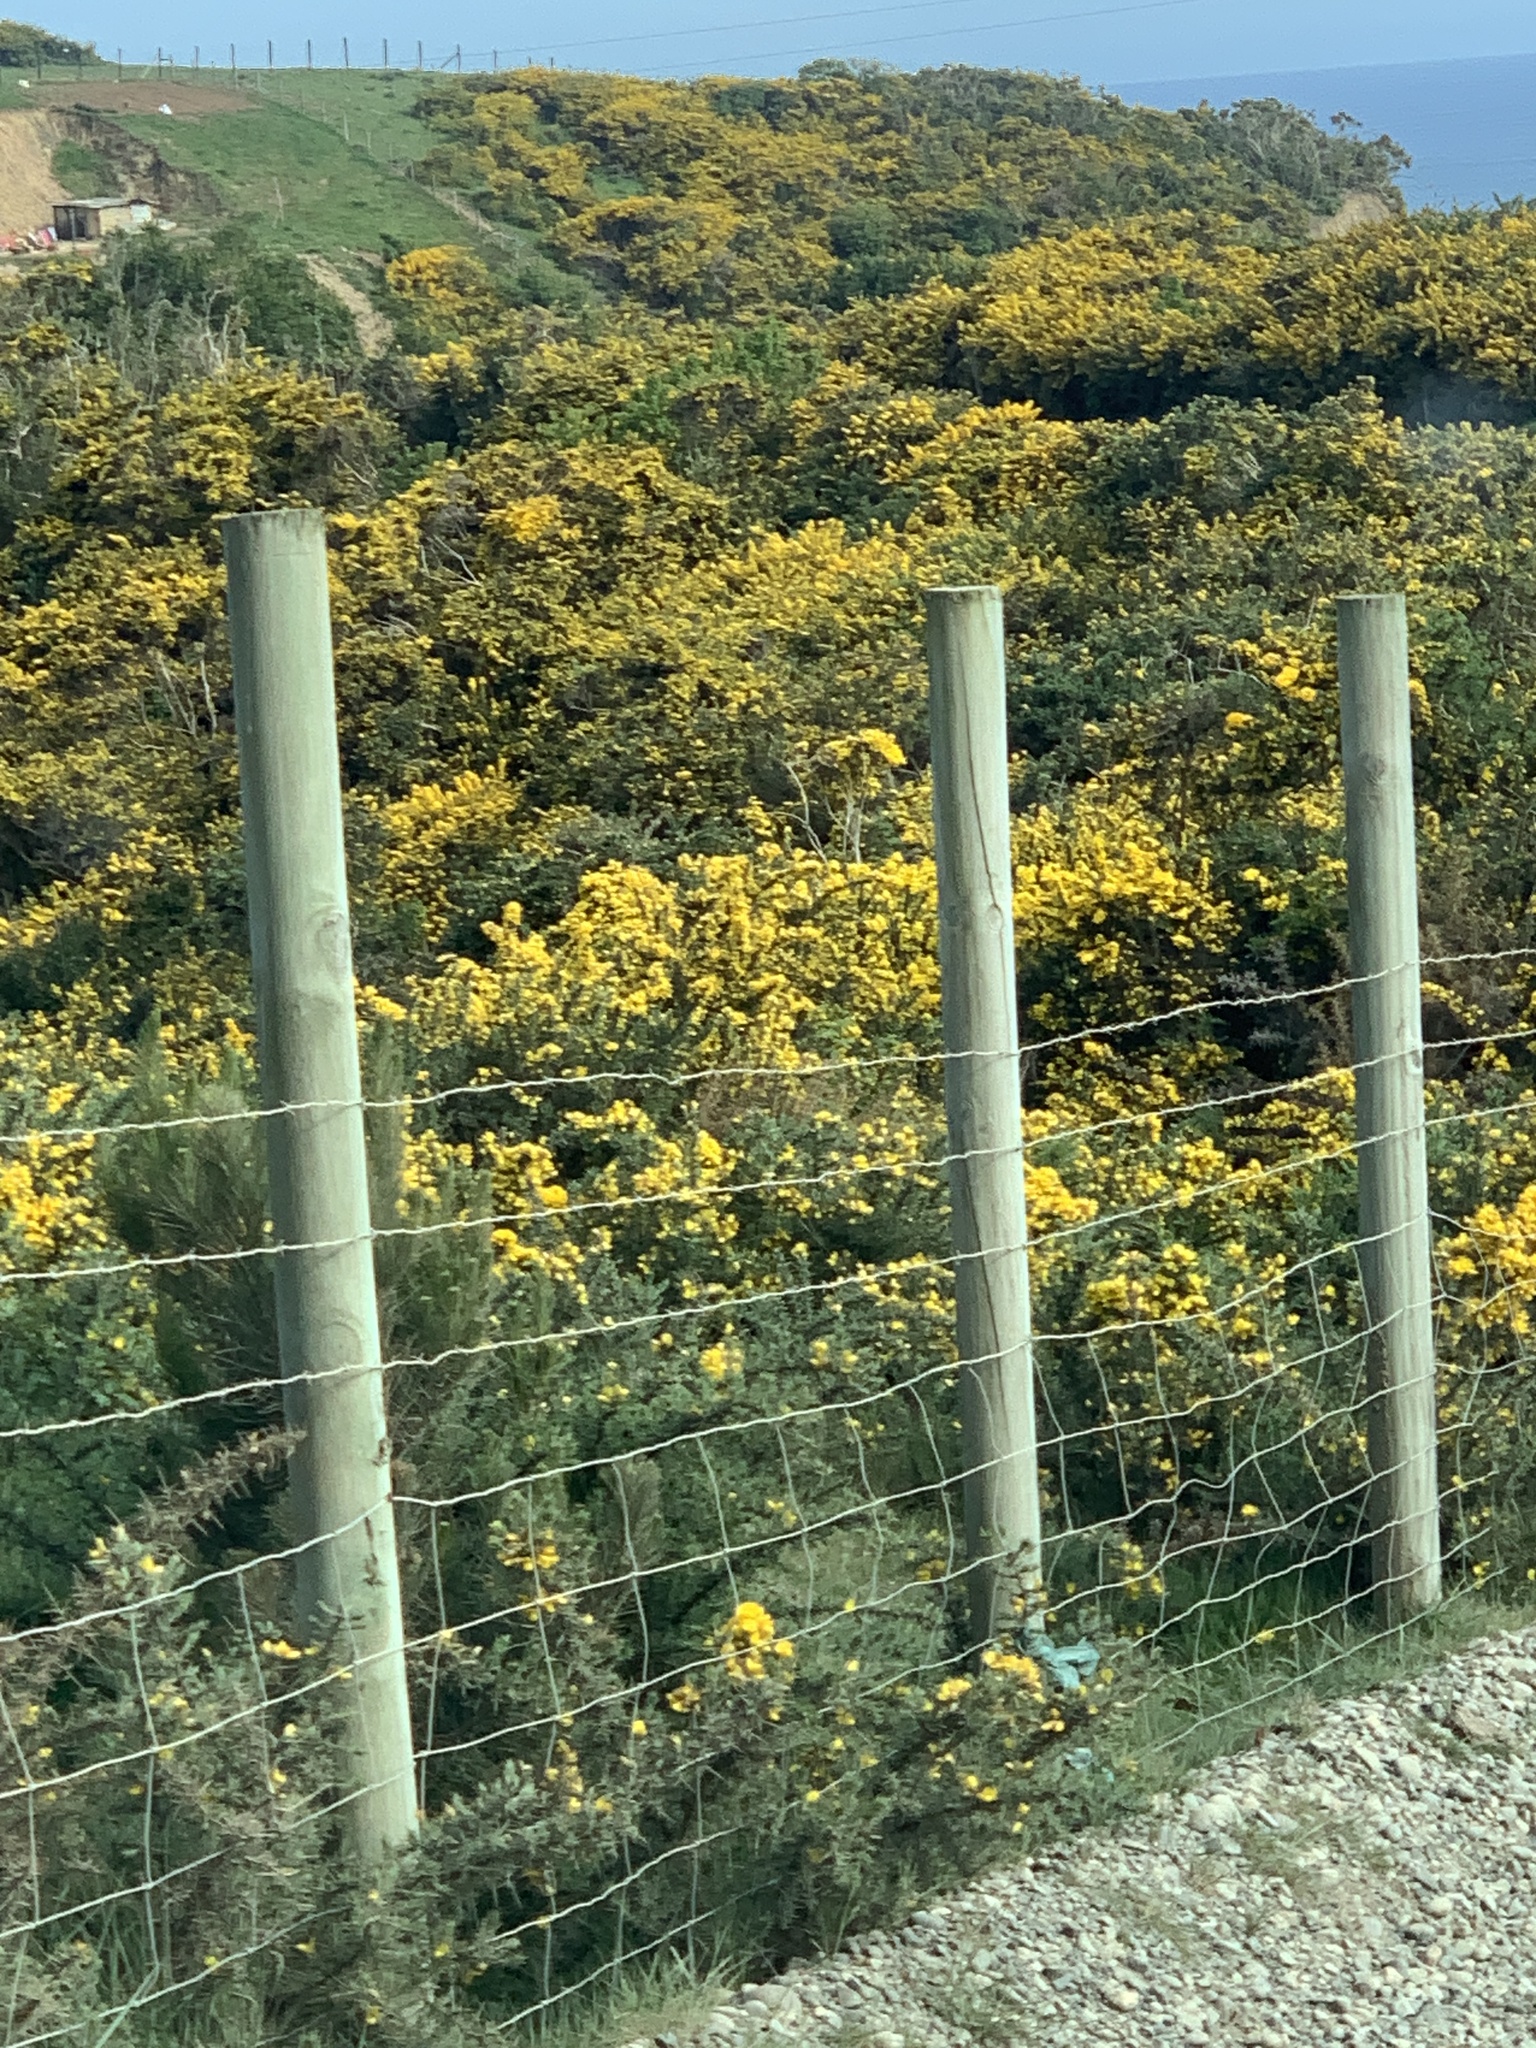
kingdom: Plantae
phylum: Tracheophyta
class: Magnoliopsida
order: Fabales
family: Fabaceae
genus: Ulex
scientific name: Ulex europaeus
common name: Common gorse
